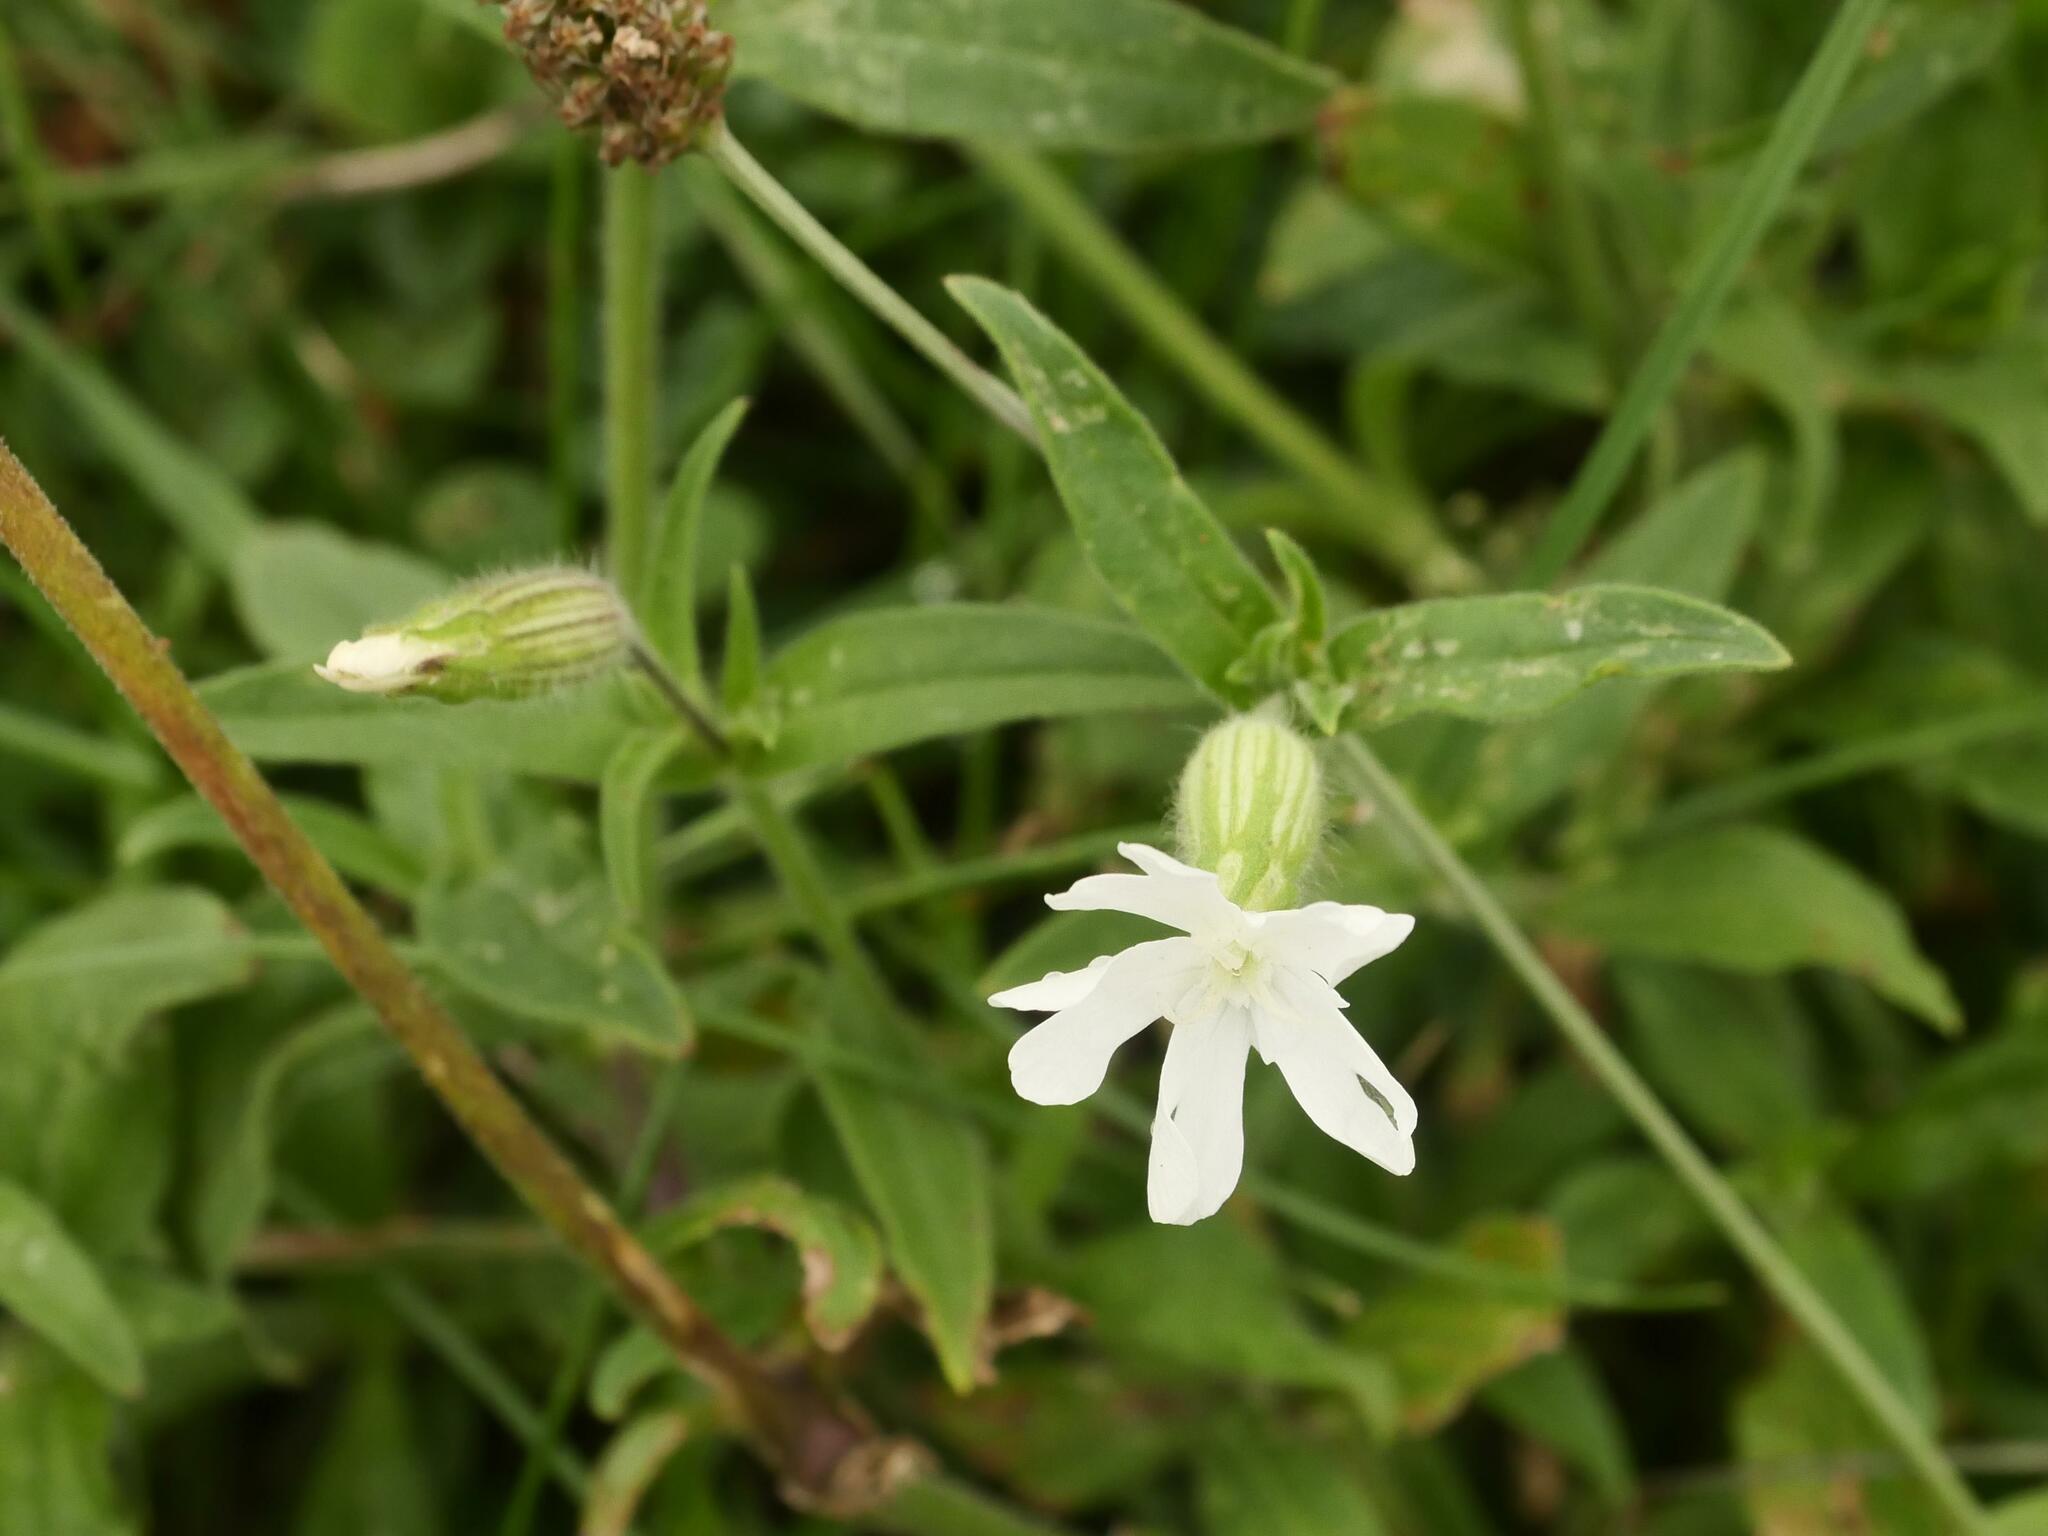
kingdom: Plantae
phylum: Tracheophyta
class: Magnoliopsida
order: Caryophyllales
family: Caryophyllaceae
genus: Silene
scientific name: Silene latifolia
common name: White campion
